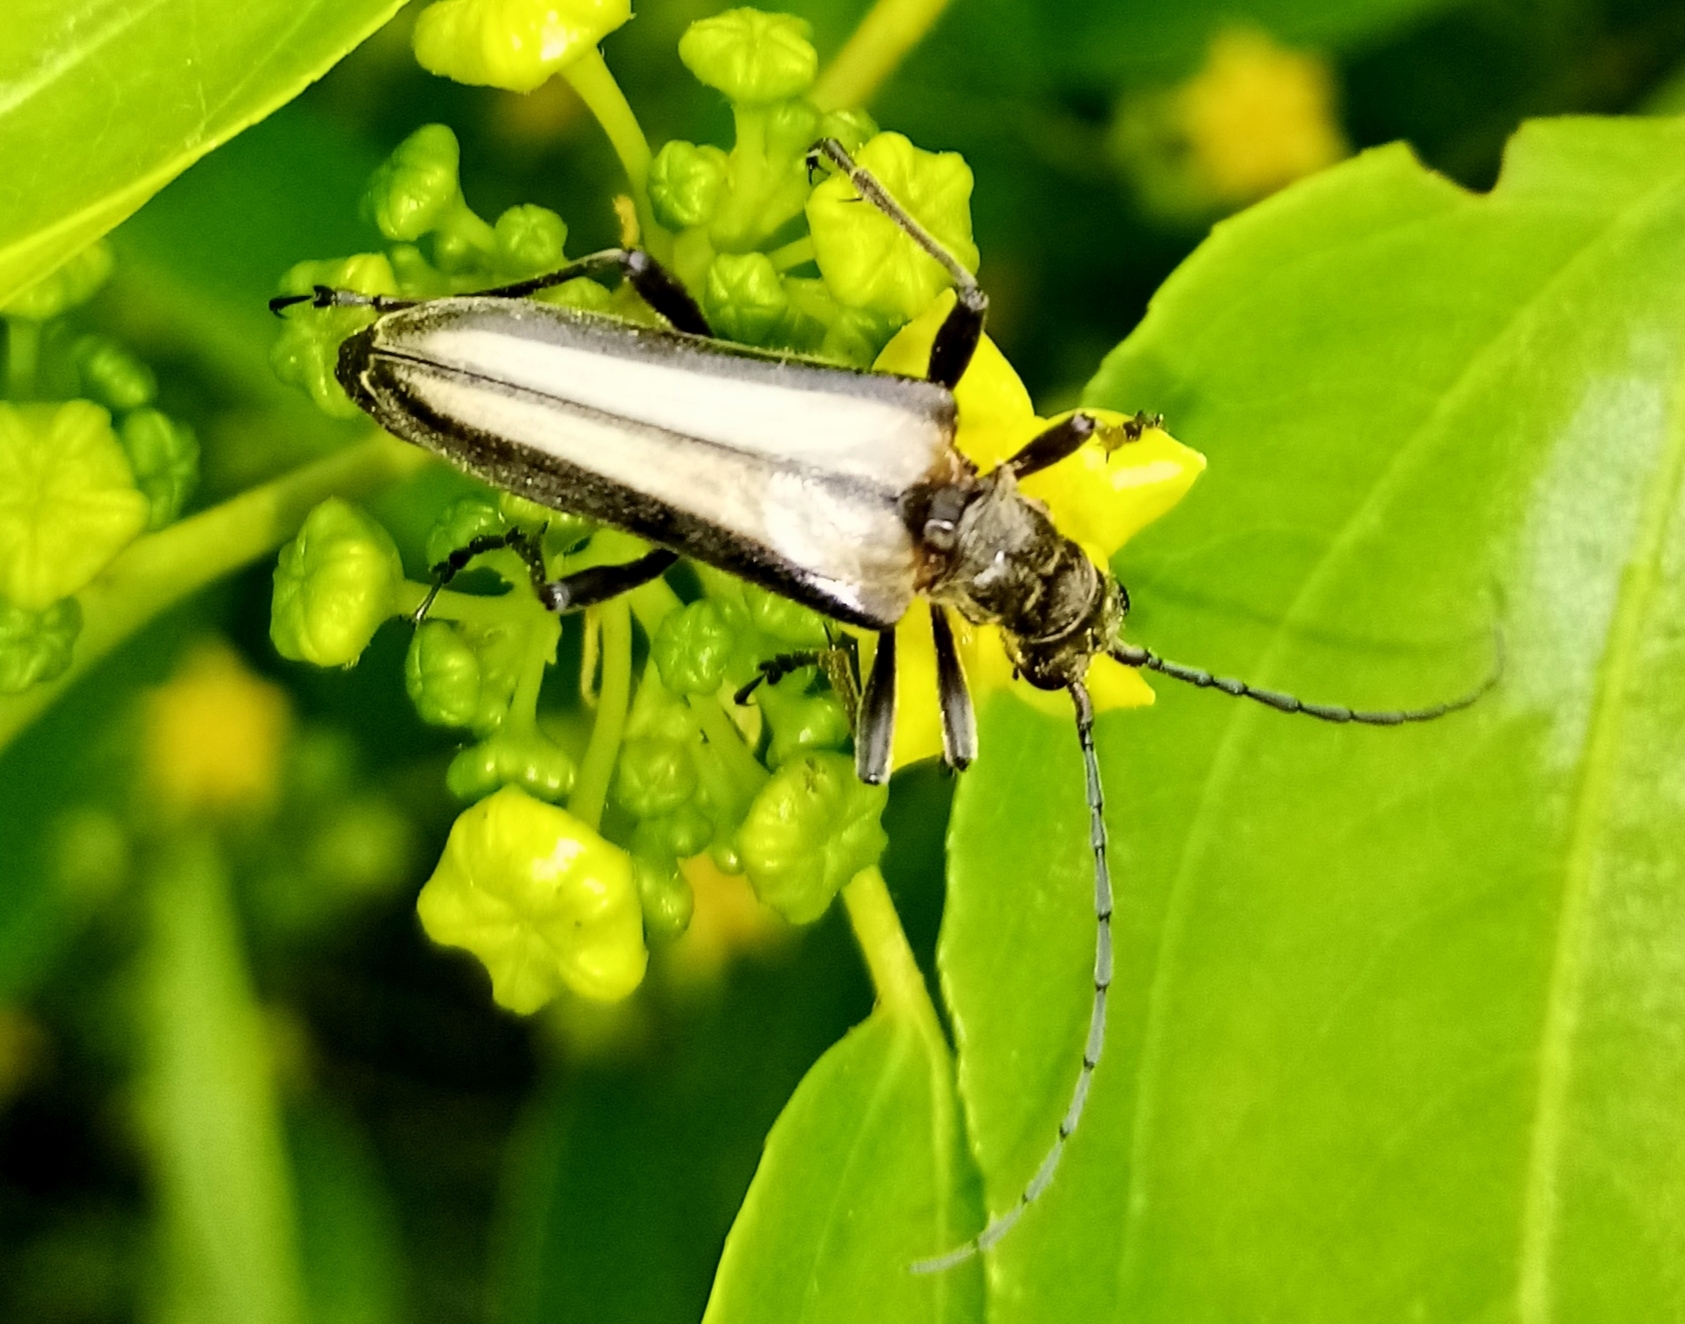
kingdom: Animalia
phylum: Arthropoda
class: Insecta
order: Coleoptera
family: Cerambycidae
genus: Stenocorus
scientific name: Stenocorus insitivus
